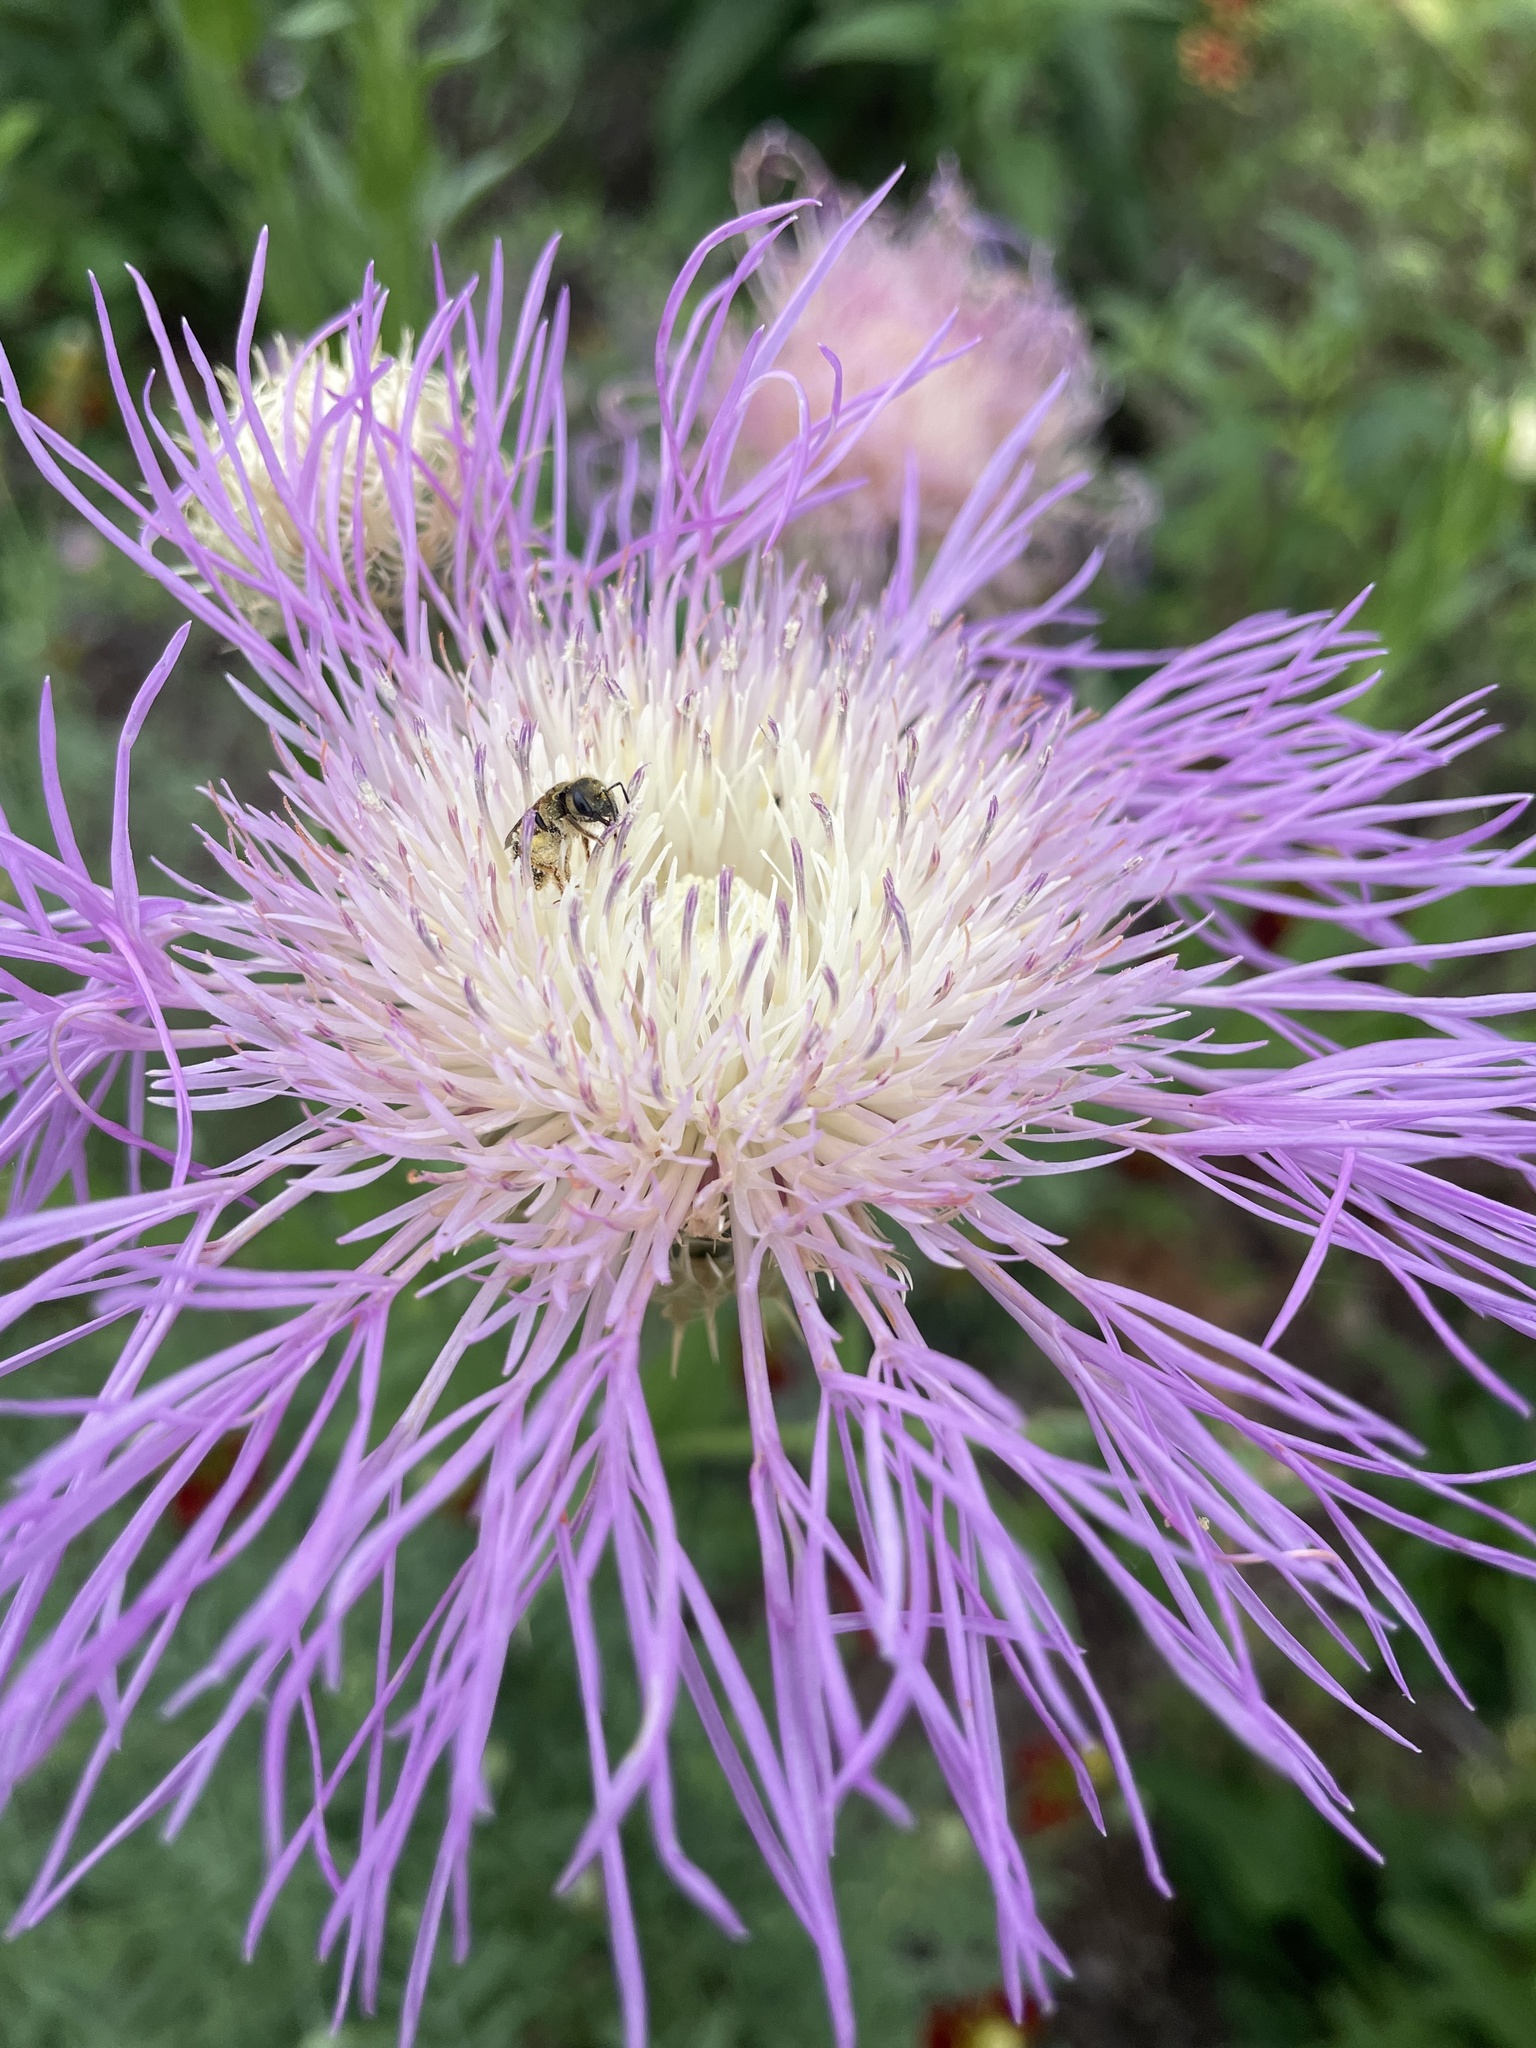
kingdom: Plantae
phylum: Tracheophyta
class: Magnoliopsida
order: Asterales
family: Asteraceae
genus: Plectocephalus
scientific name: Plectocephalus americanus
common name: American basket-flower
